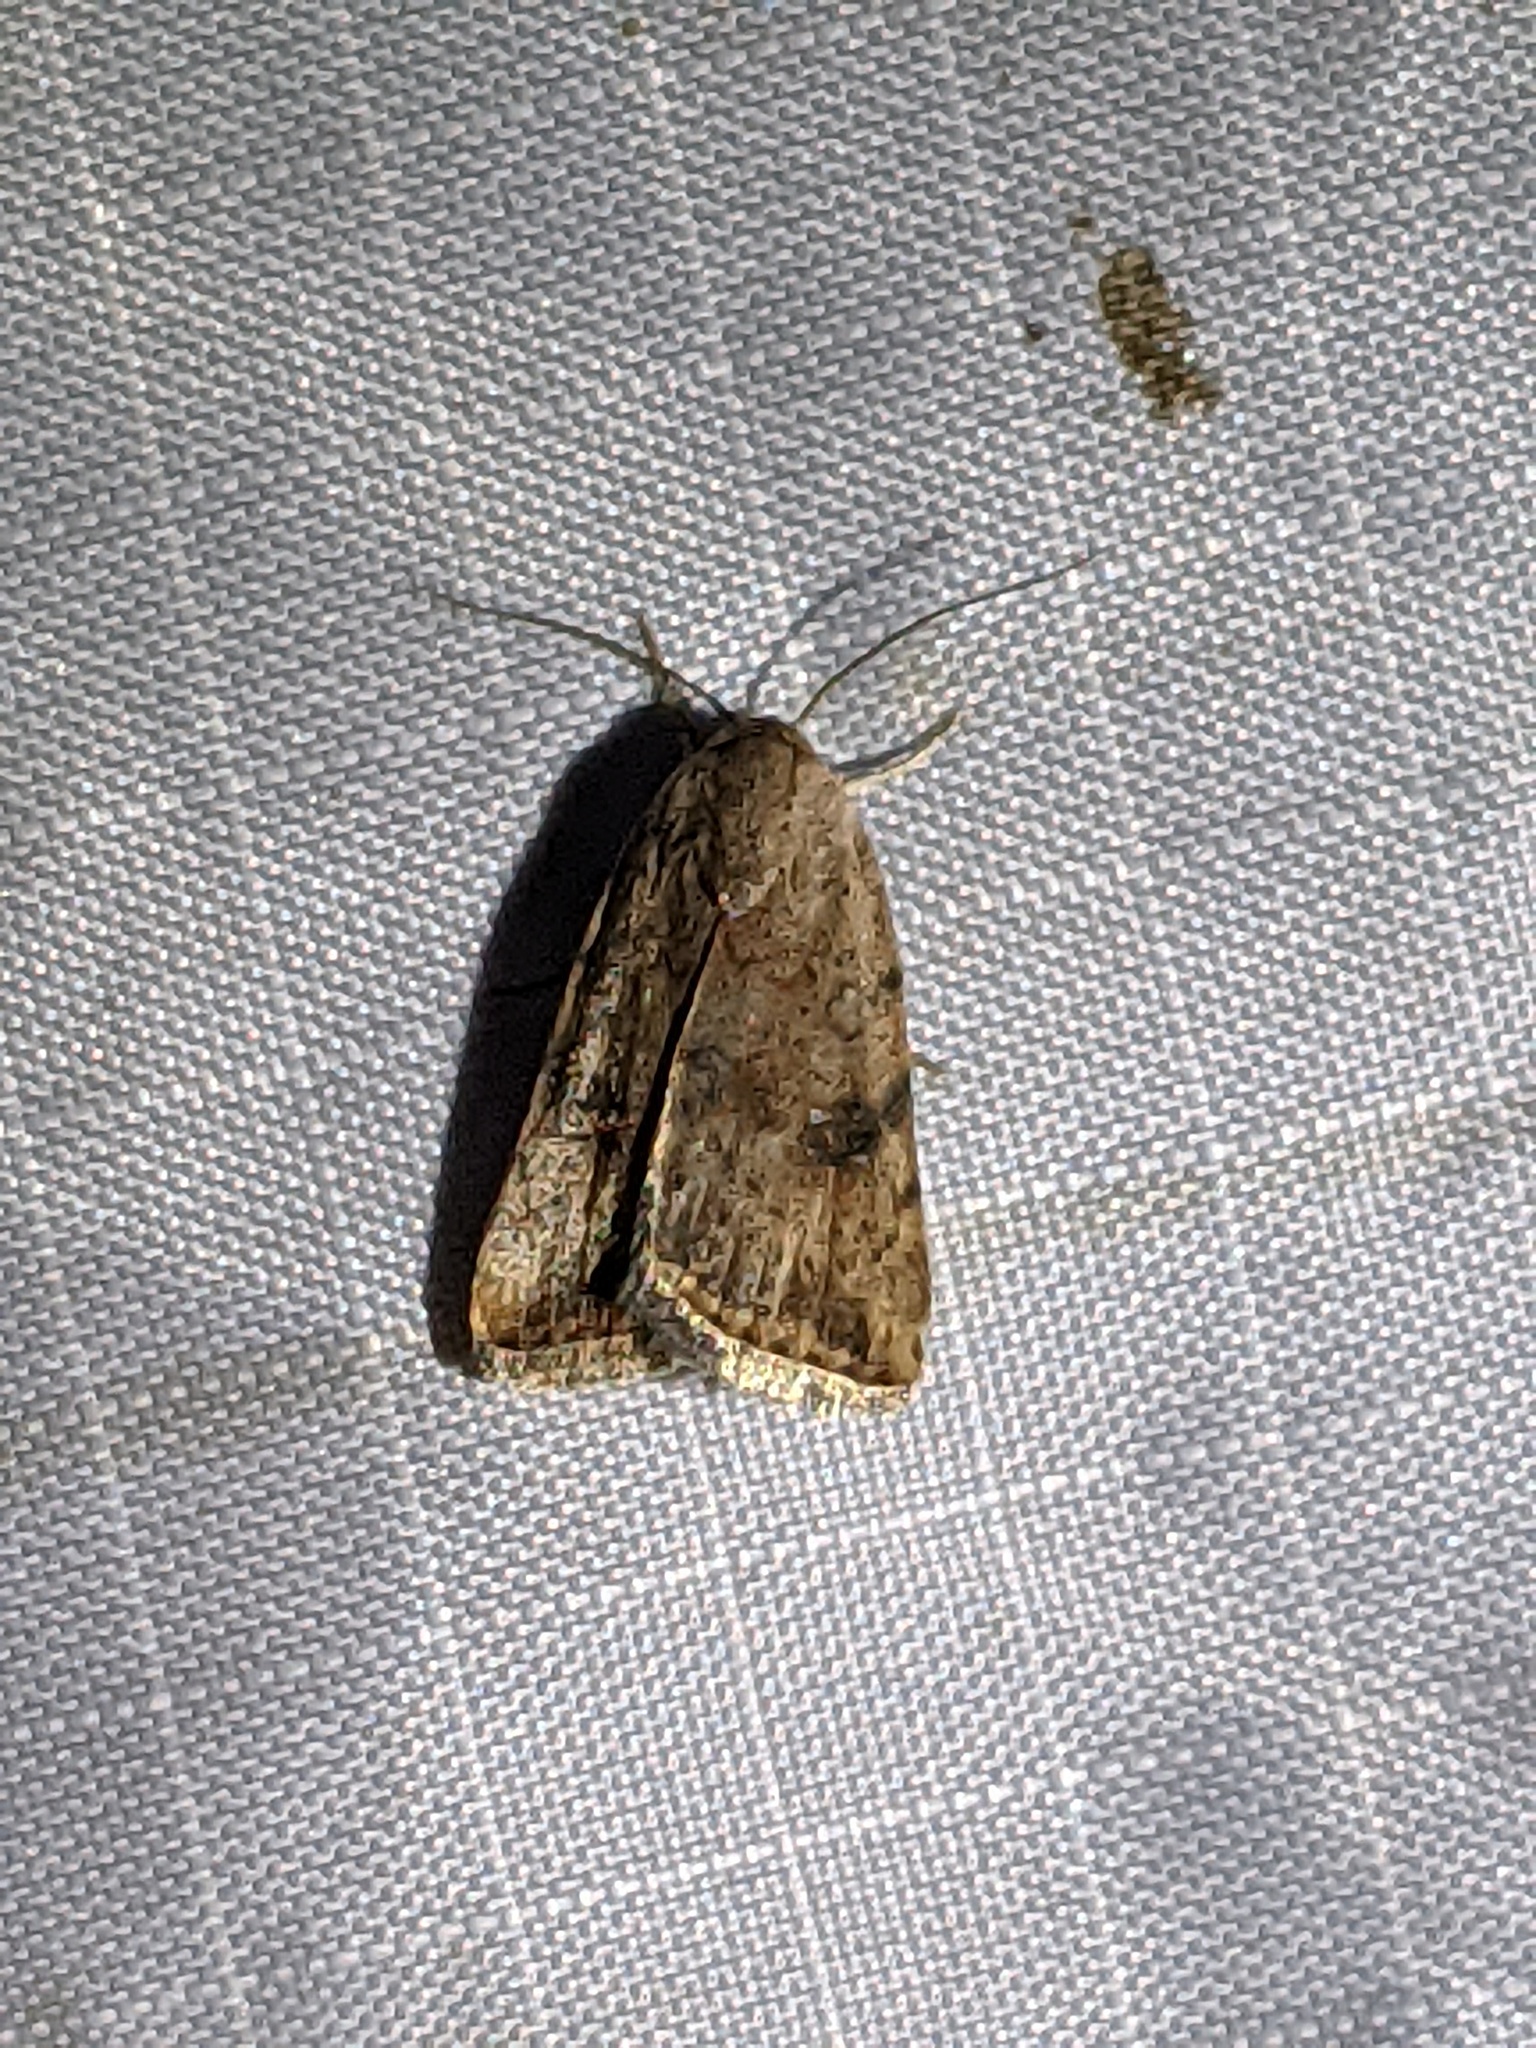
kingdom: Animalia
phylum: Arthropoda
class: Insecta
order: Lepidoptera
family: Noctuidae
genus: Micrathetis
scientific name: Micrathetis triplex
